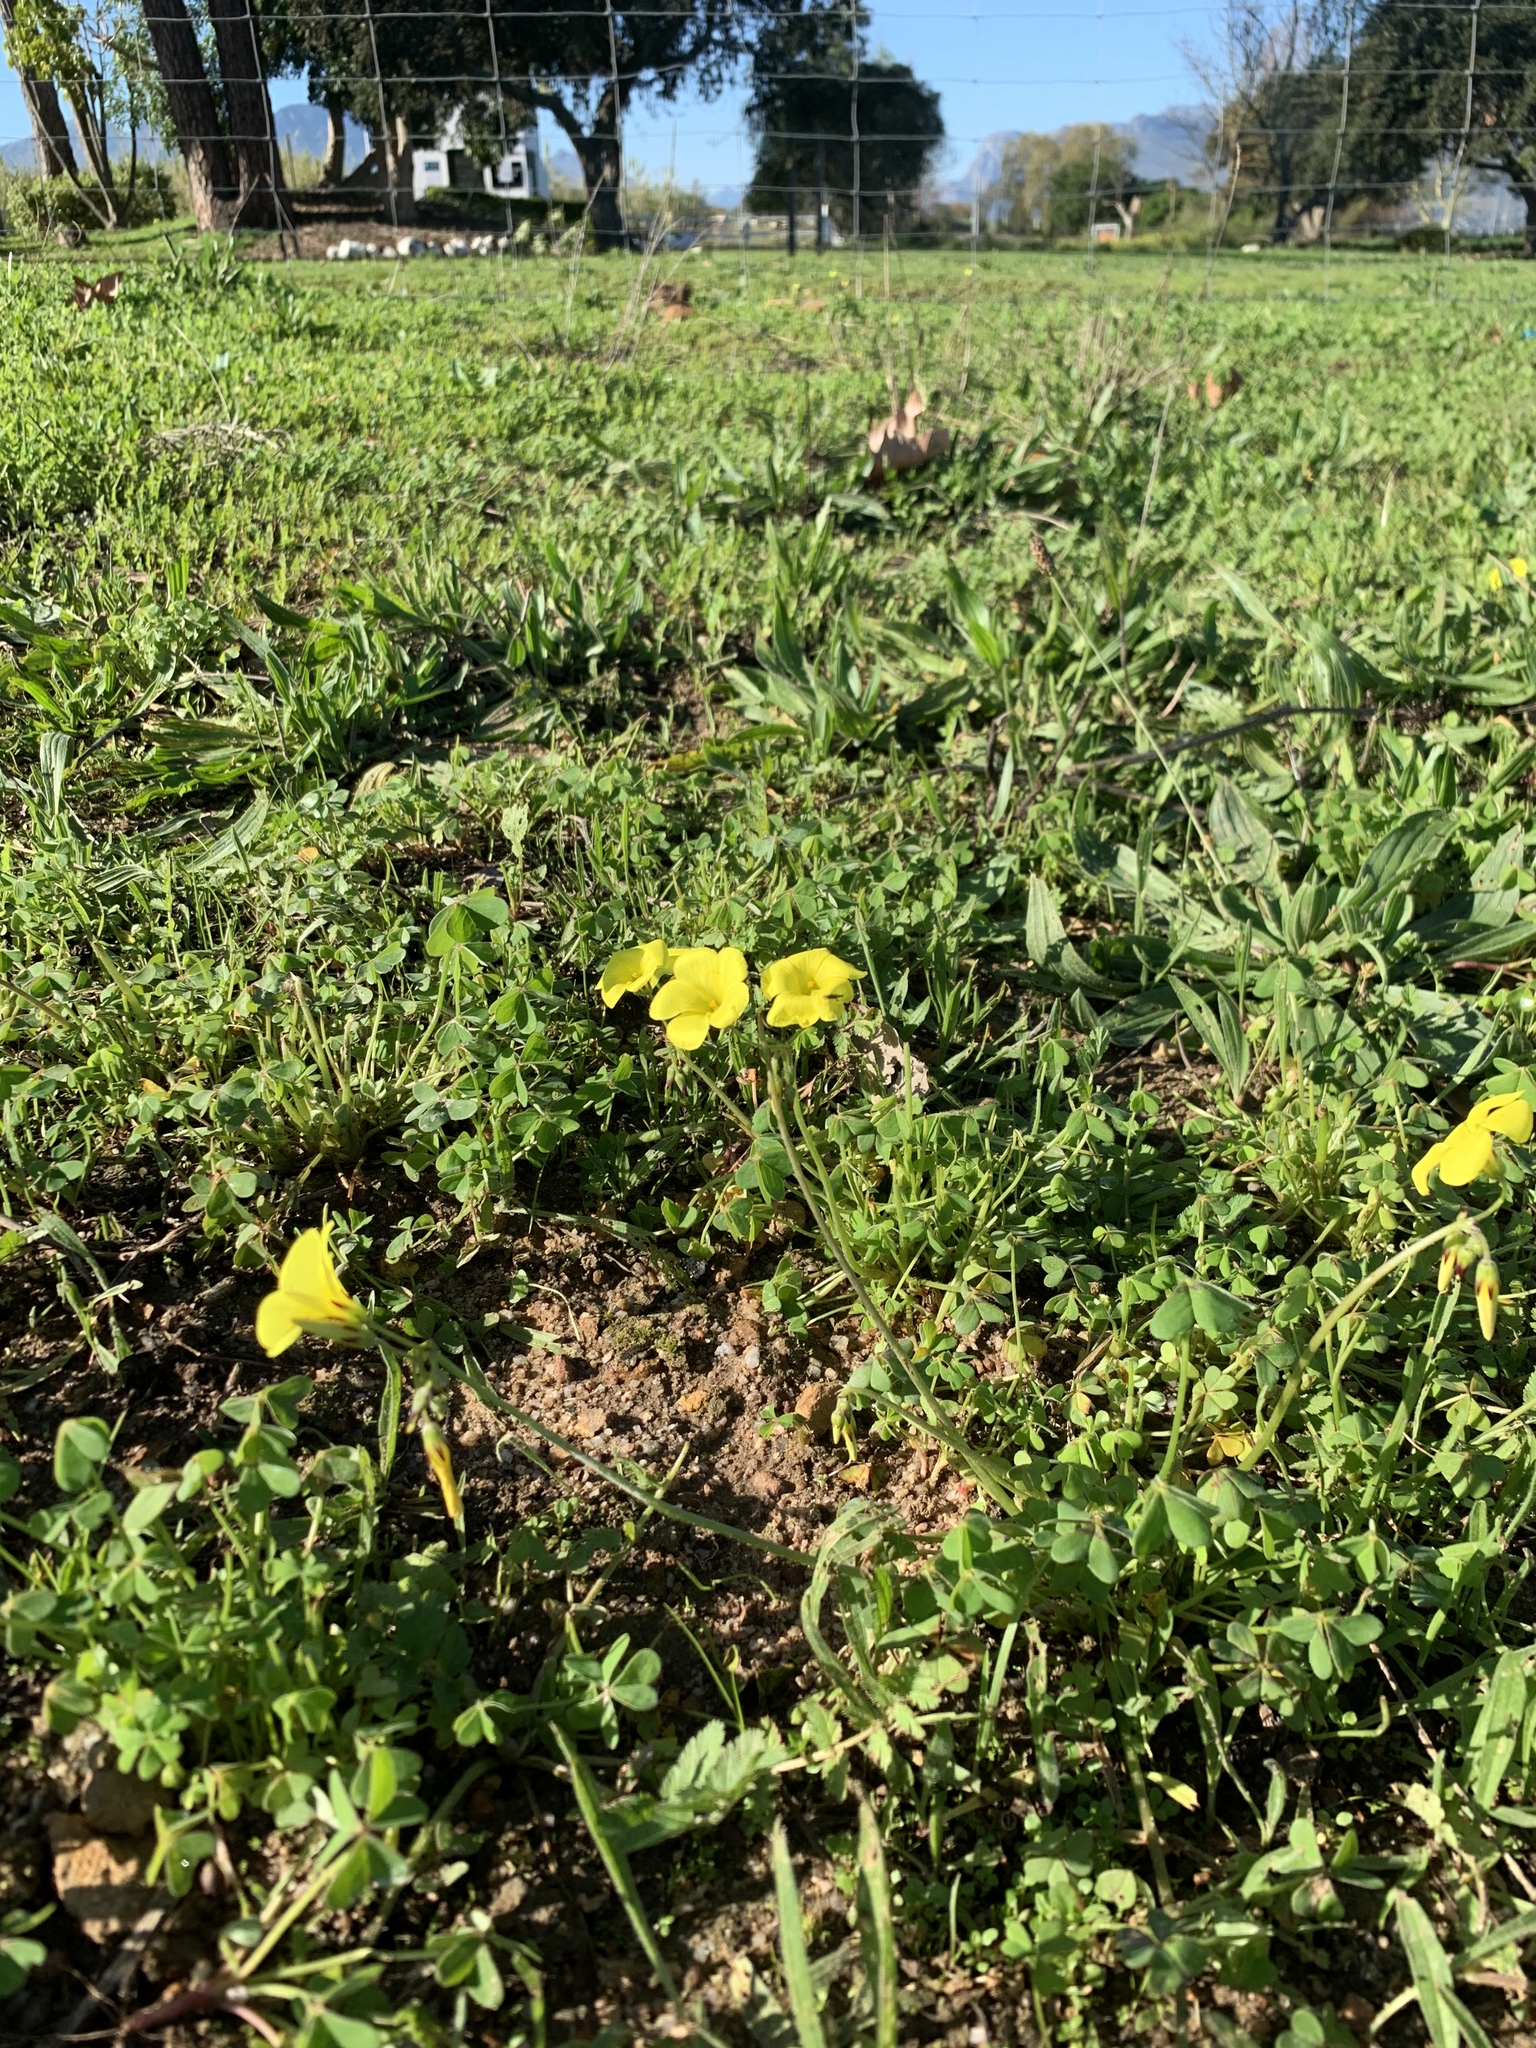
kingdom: Plantae
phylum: Tracheophyta
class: Magnoliopsida
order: Oxalidales
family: Oxalidaceae
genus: Oxalis
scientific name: Oxalis pes-caprae
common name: Bermuda-buttercup
